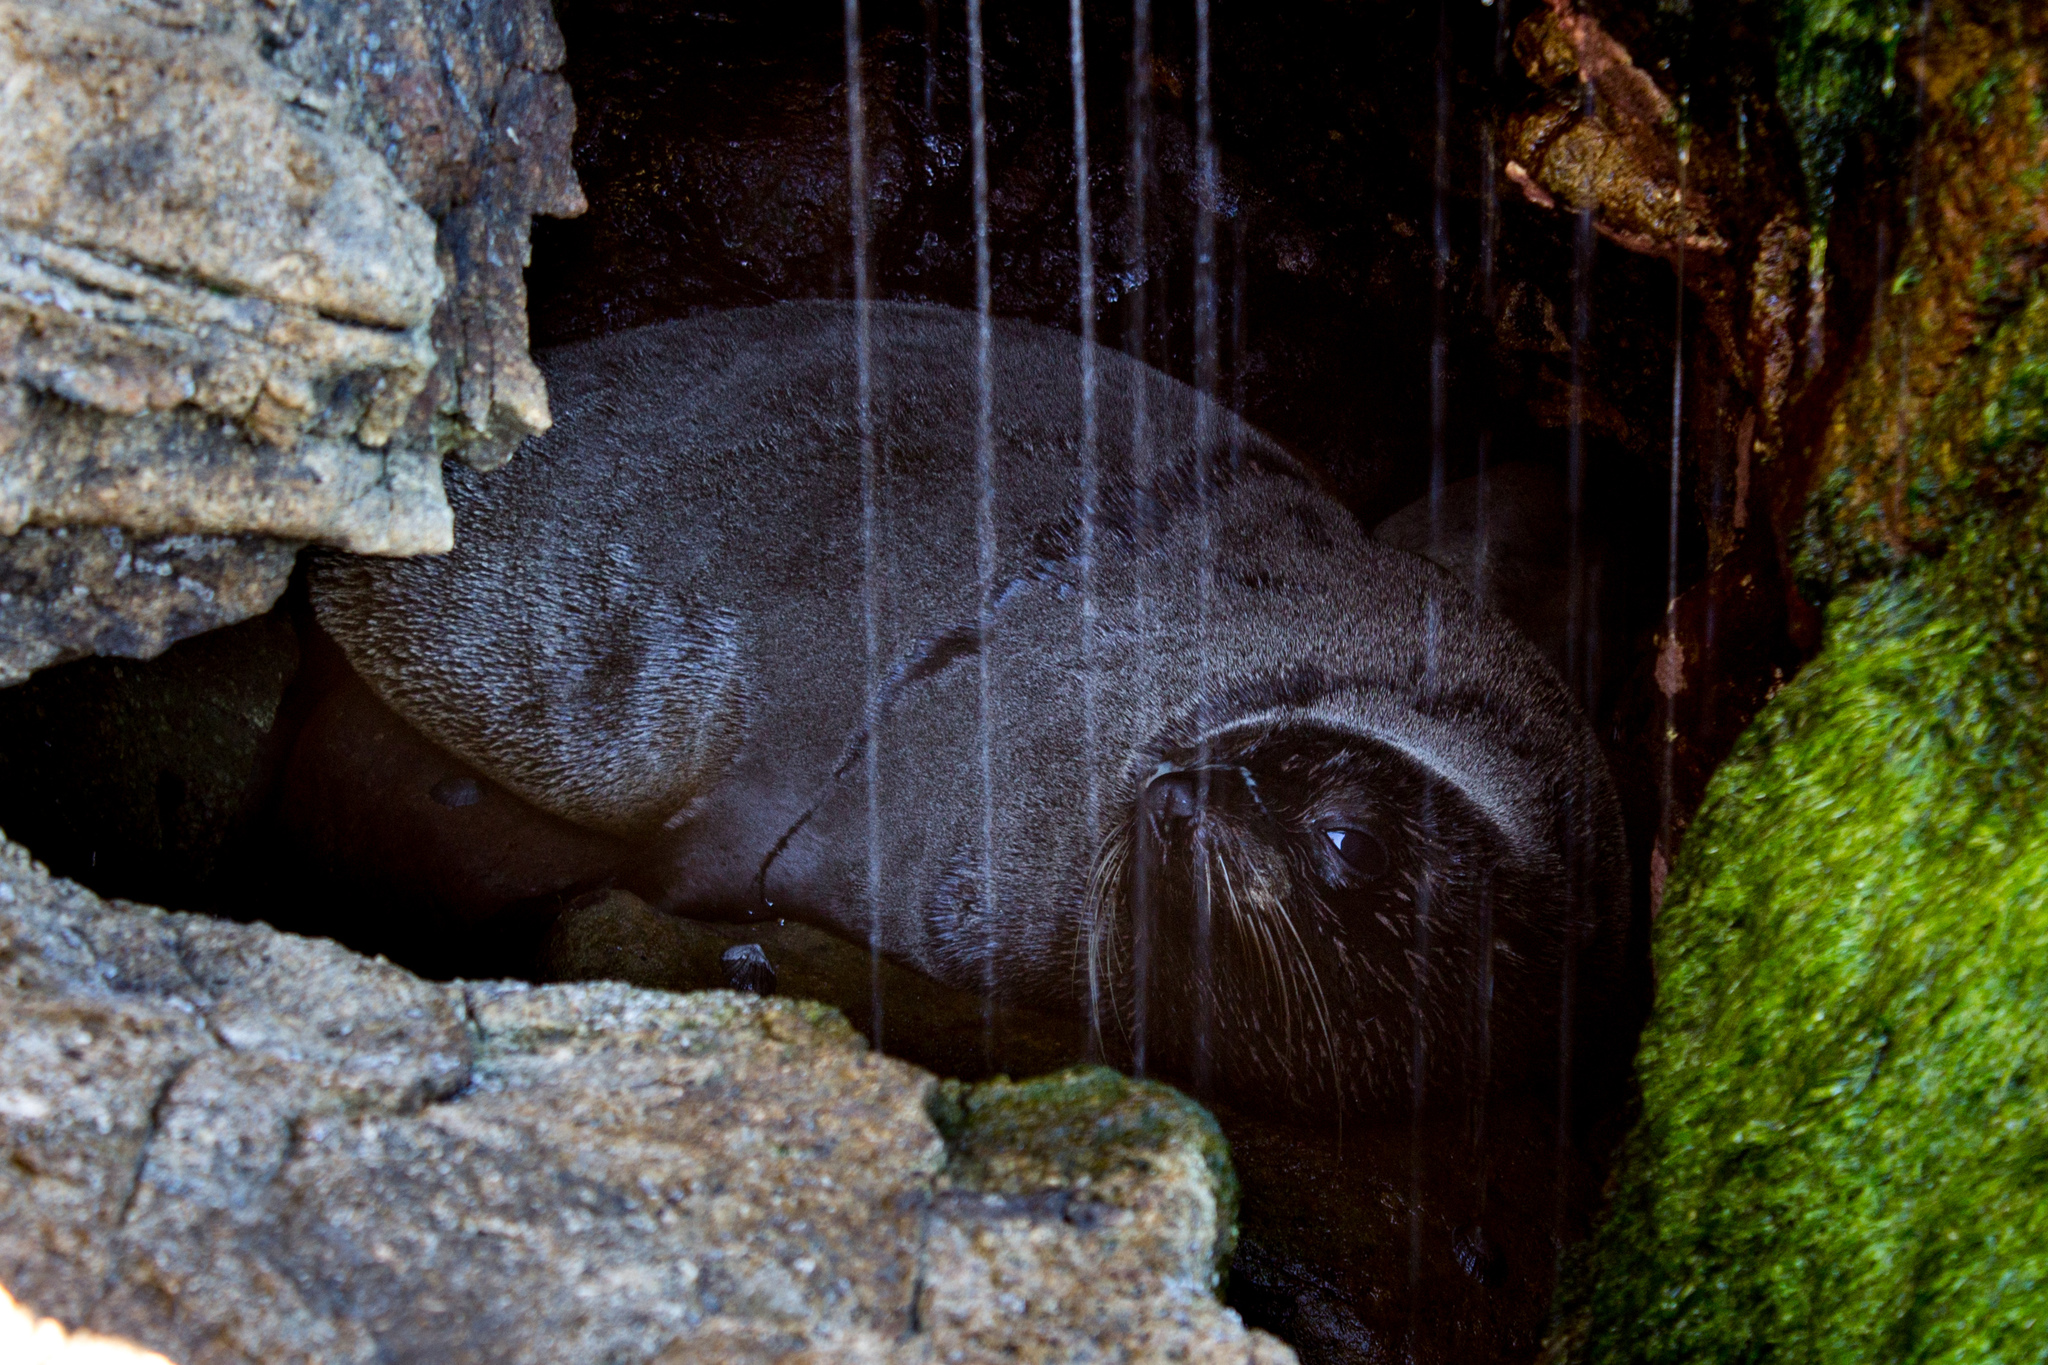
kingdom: Animalia
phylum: Chordata
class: Mammalia
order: Carnivora
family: Otariidae
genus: Arctocephalus
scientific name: Arctocephalus forsteri
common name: New zealand fur seal
